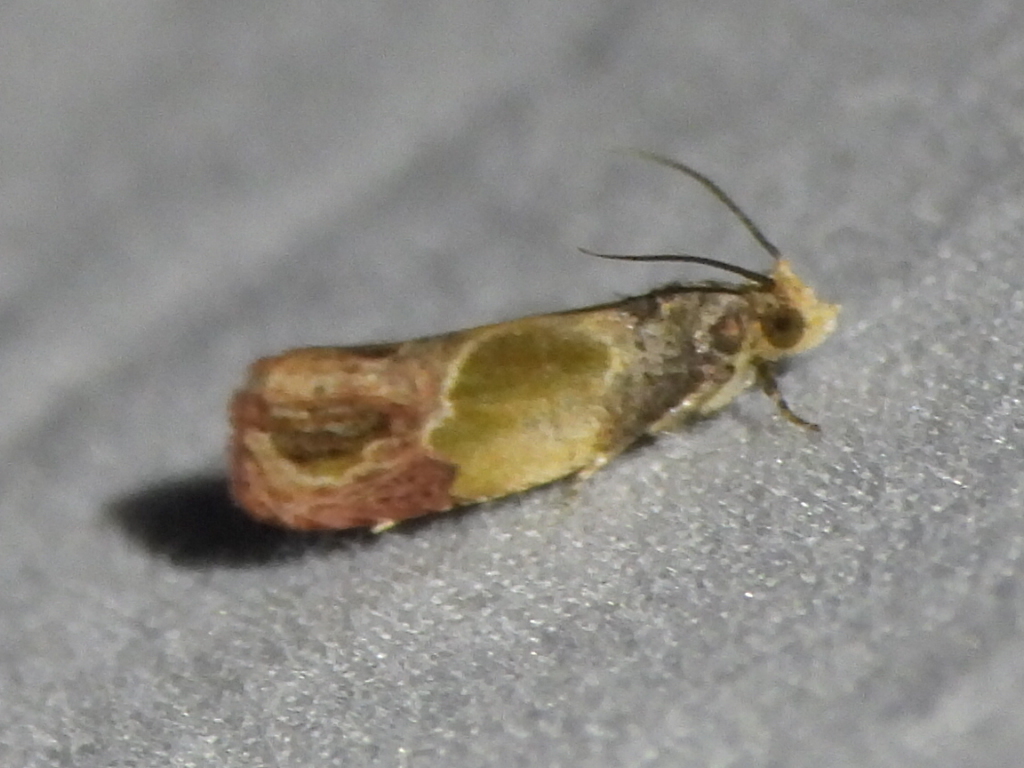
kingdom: Animalia
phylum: Arthropoda
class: Insecta
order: Lepidoptera
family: Tortricidae
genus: Eumarozia
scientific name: Eumarozia malachitana
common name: Sculptured moth
